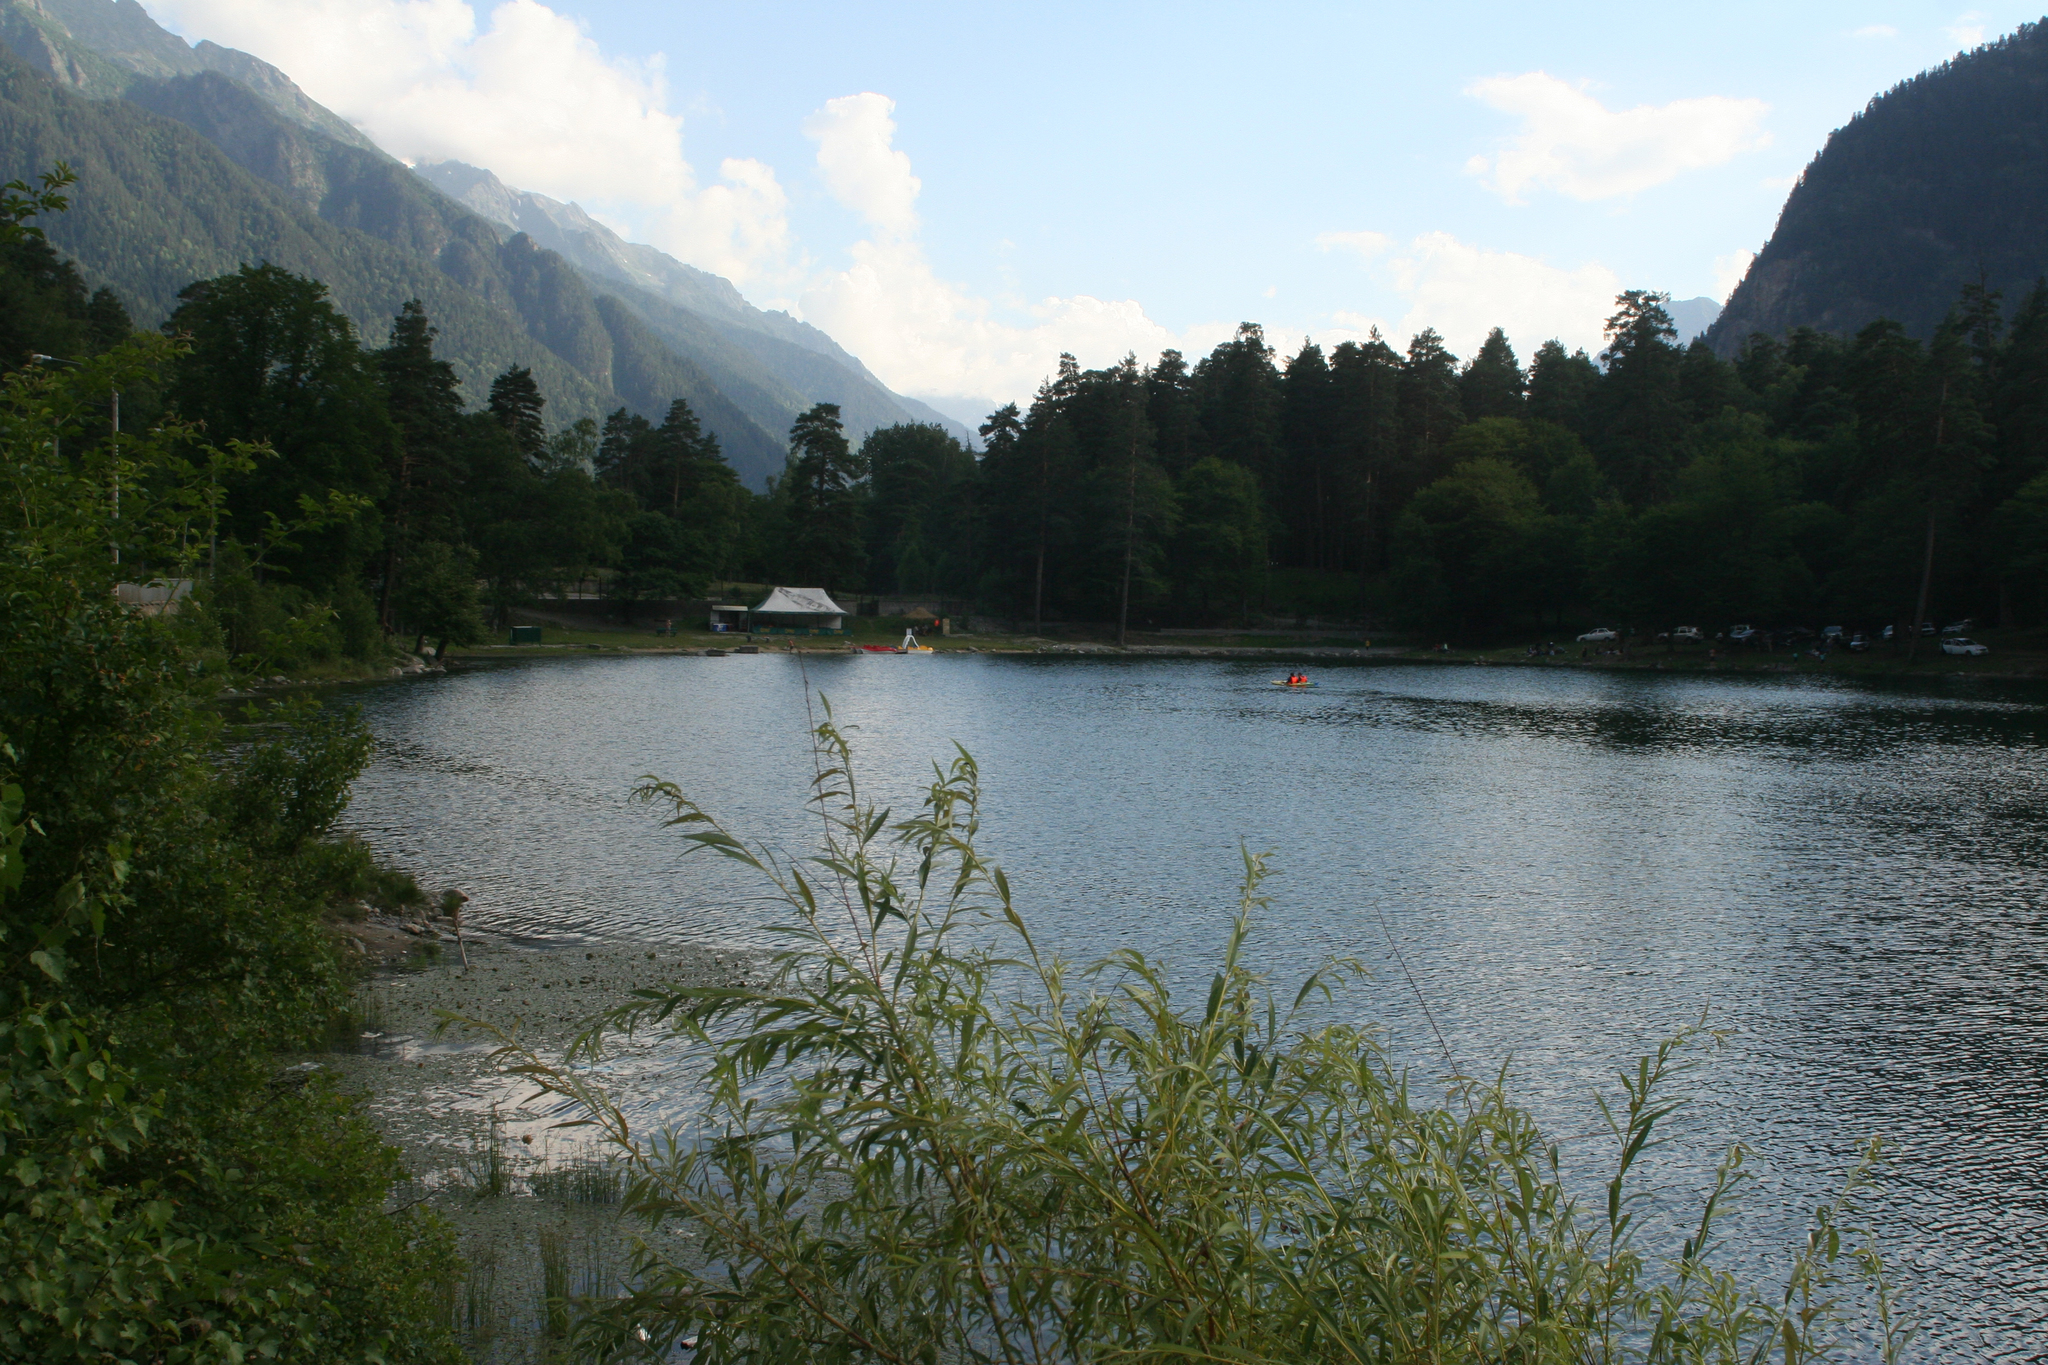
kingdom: Plantae
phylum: Tracheophyta
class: Pinopsida
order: Pinales
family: Pinaceae
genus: Pinus
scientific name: Pinus sylvestris
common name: Scots pine
